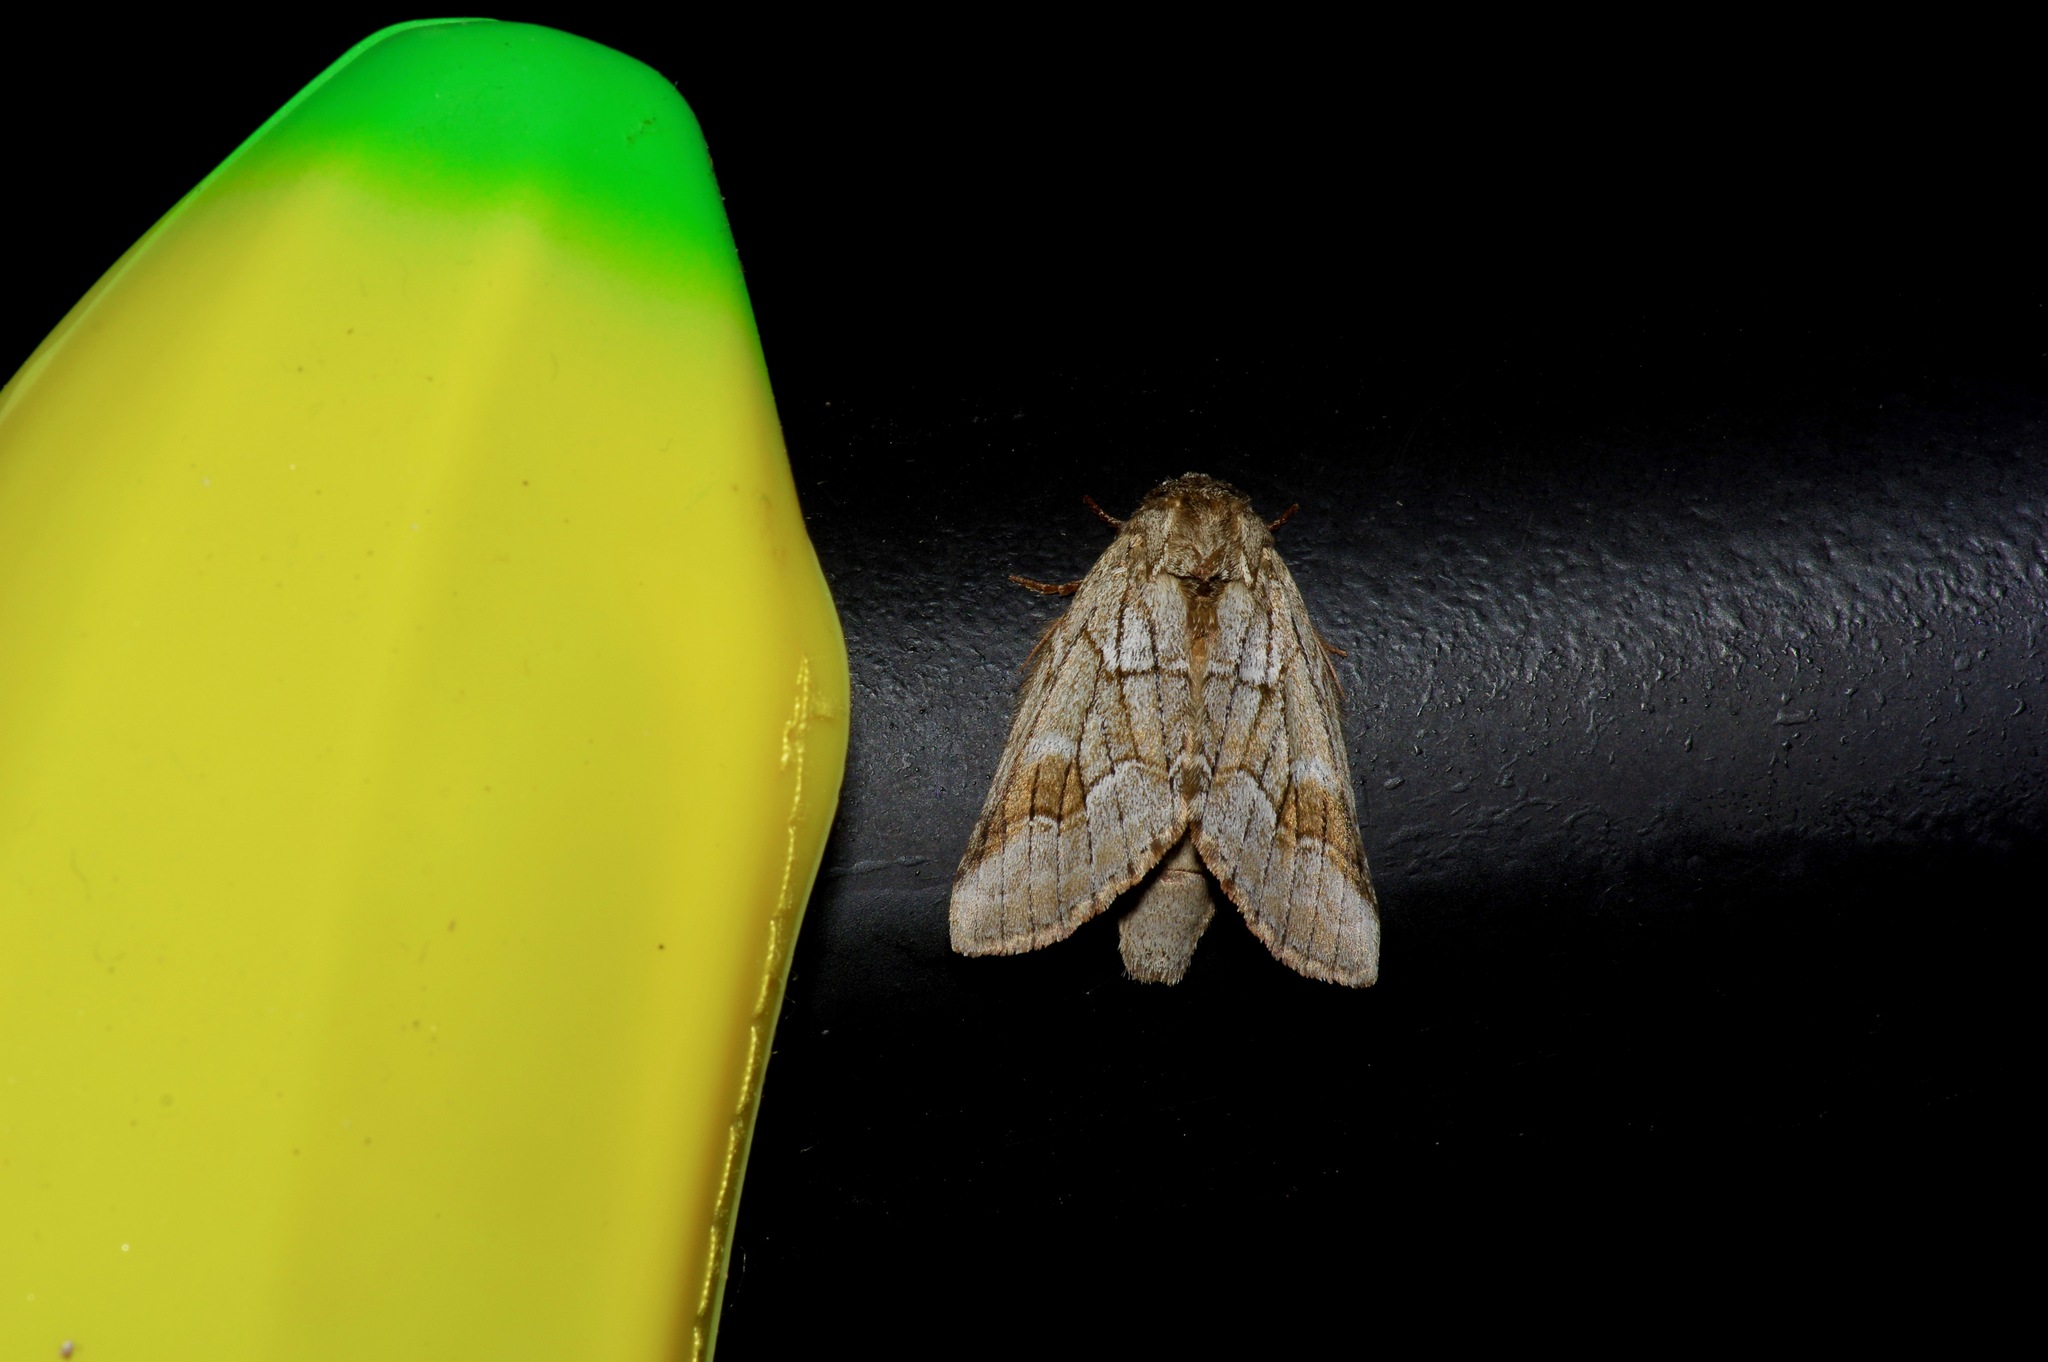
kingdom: Animalia
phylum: Arthropoda
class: Insecta
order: Lepidoptera
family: Notodontidae
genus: Lochmaeus
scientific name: Lochmaeus bilineata
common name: Double-lined prominent
